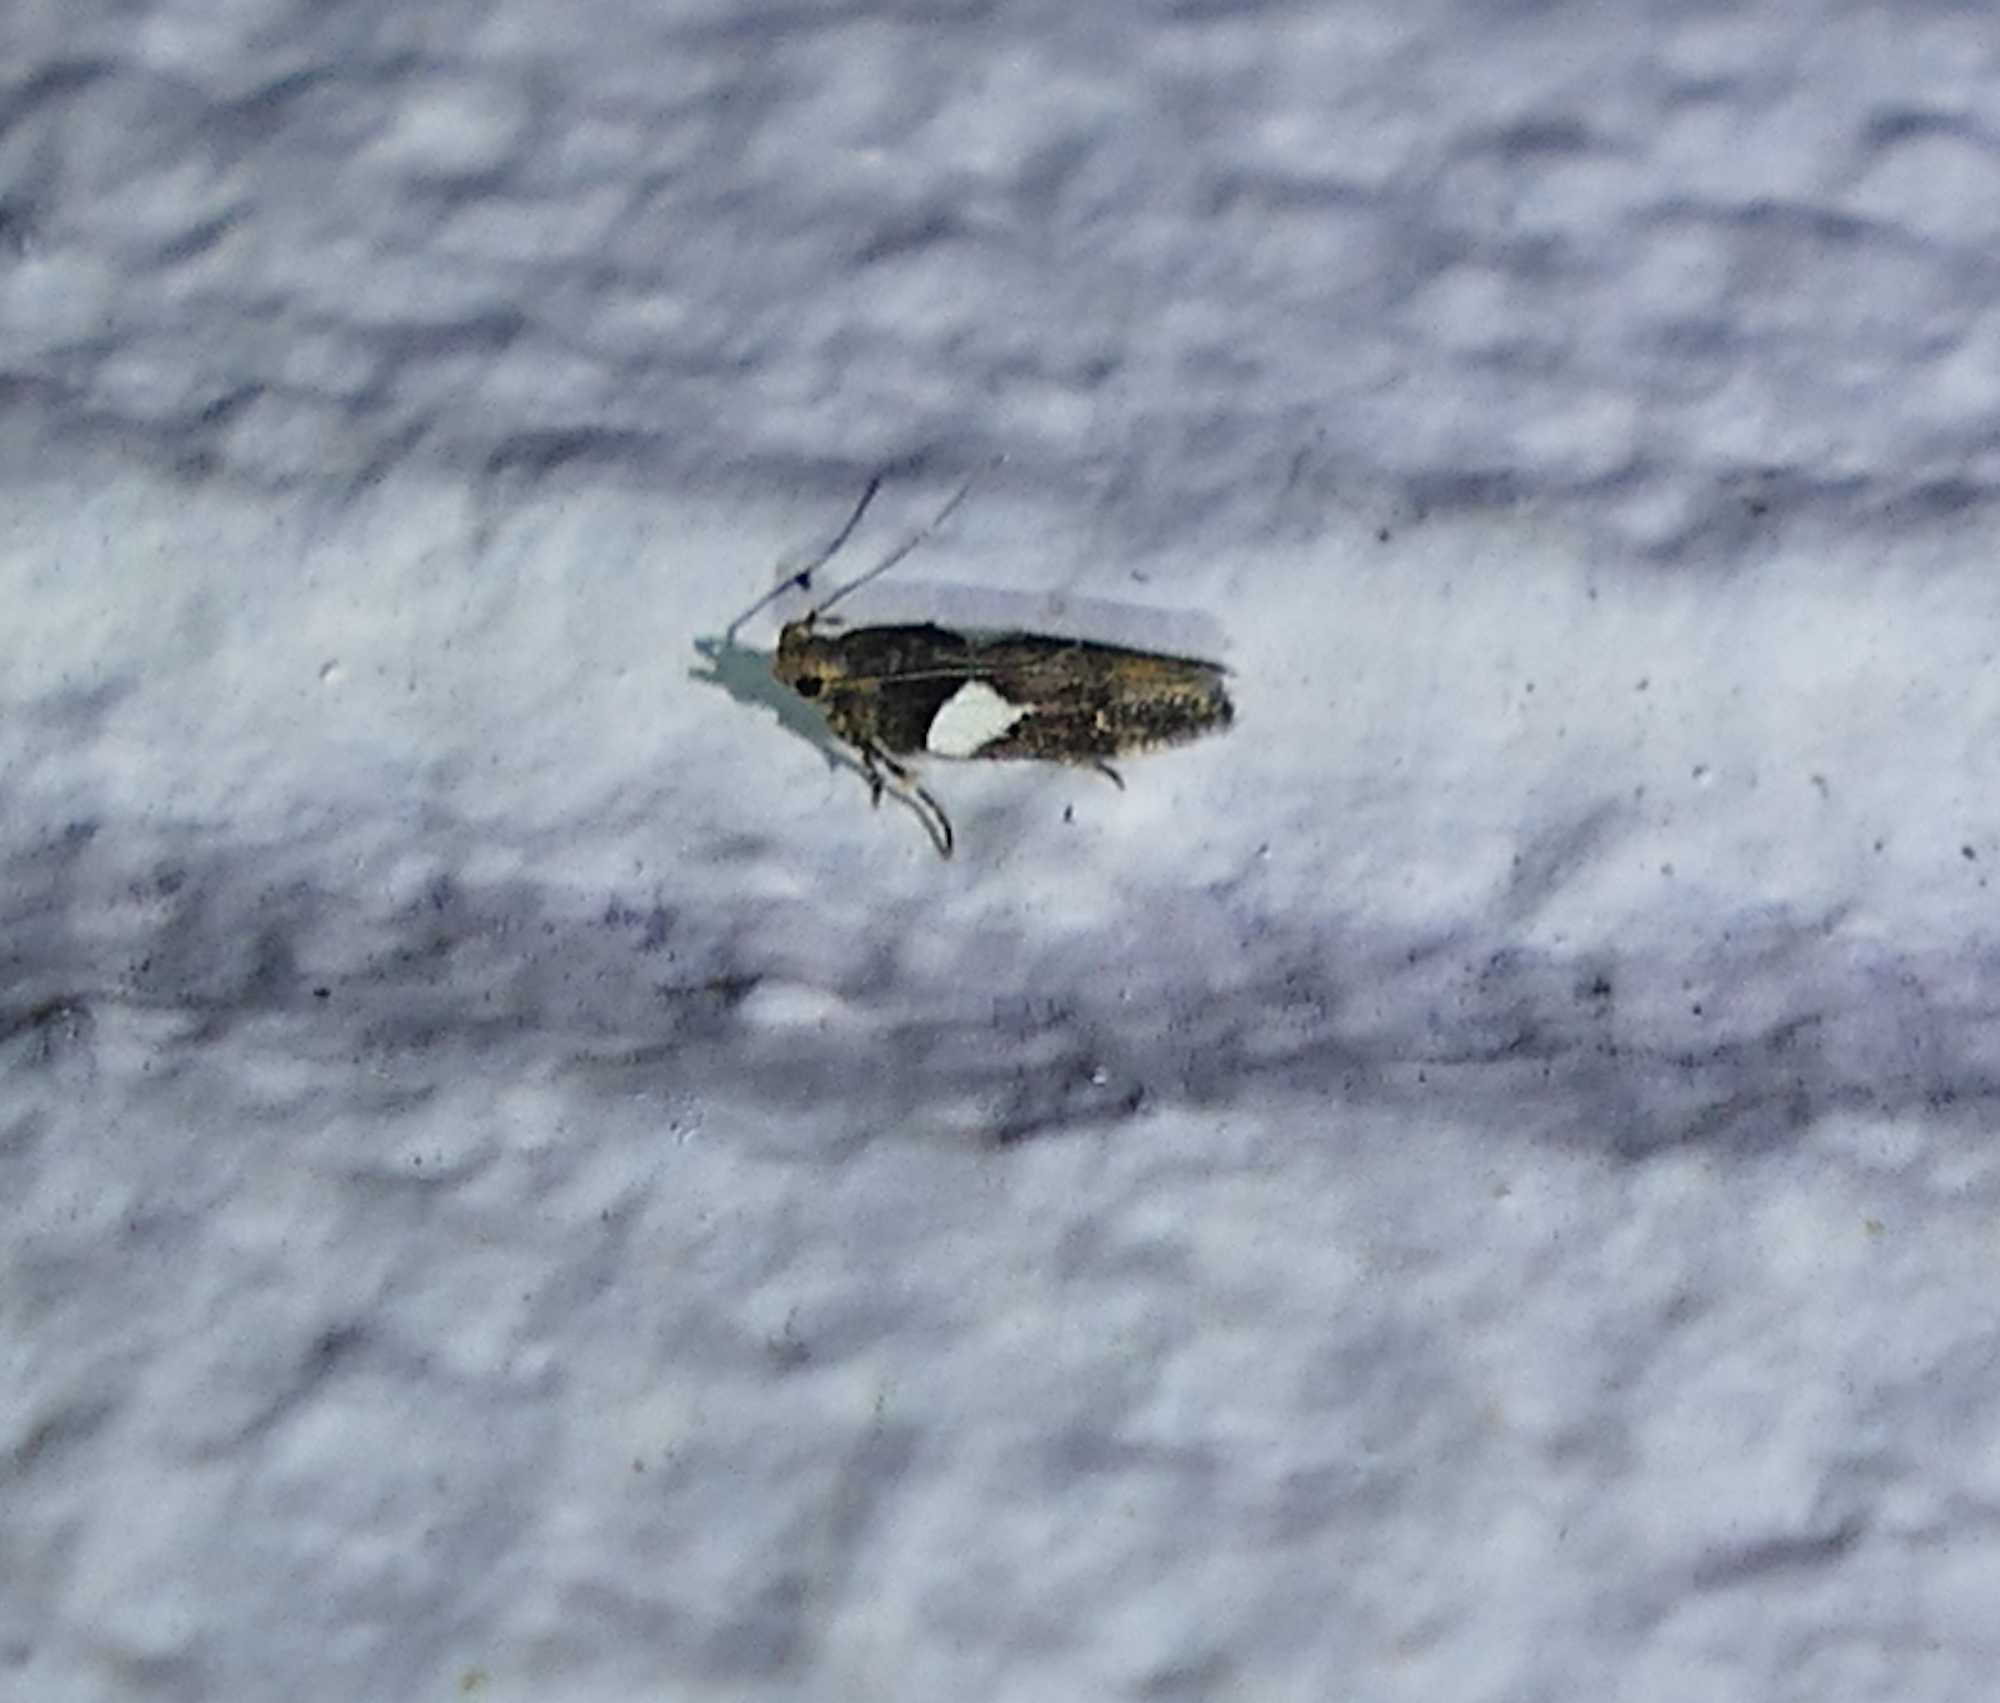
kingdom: Animalia
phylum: Arthropoda
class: Insecta
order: Lepidoptera
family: Gelechiidae
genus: Friseria
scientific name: Friseria acaciella
